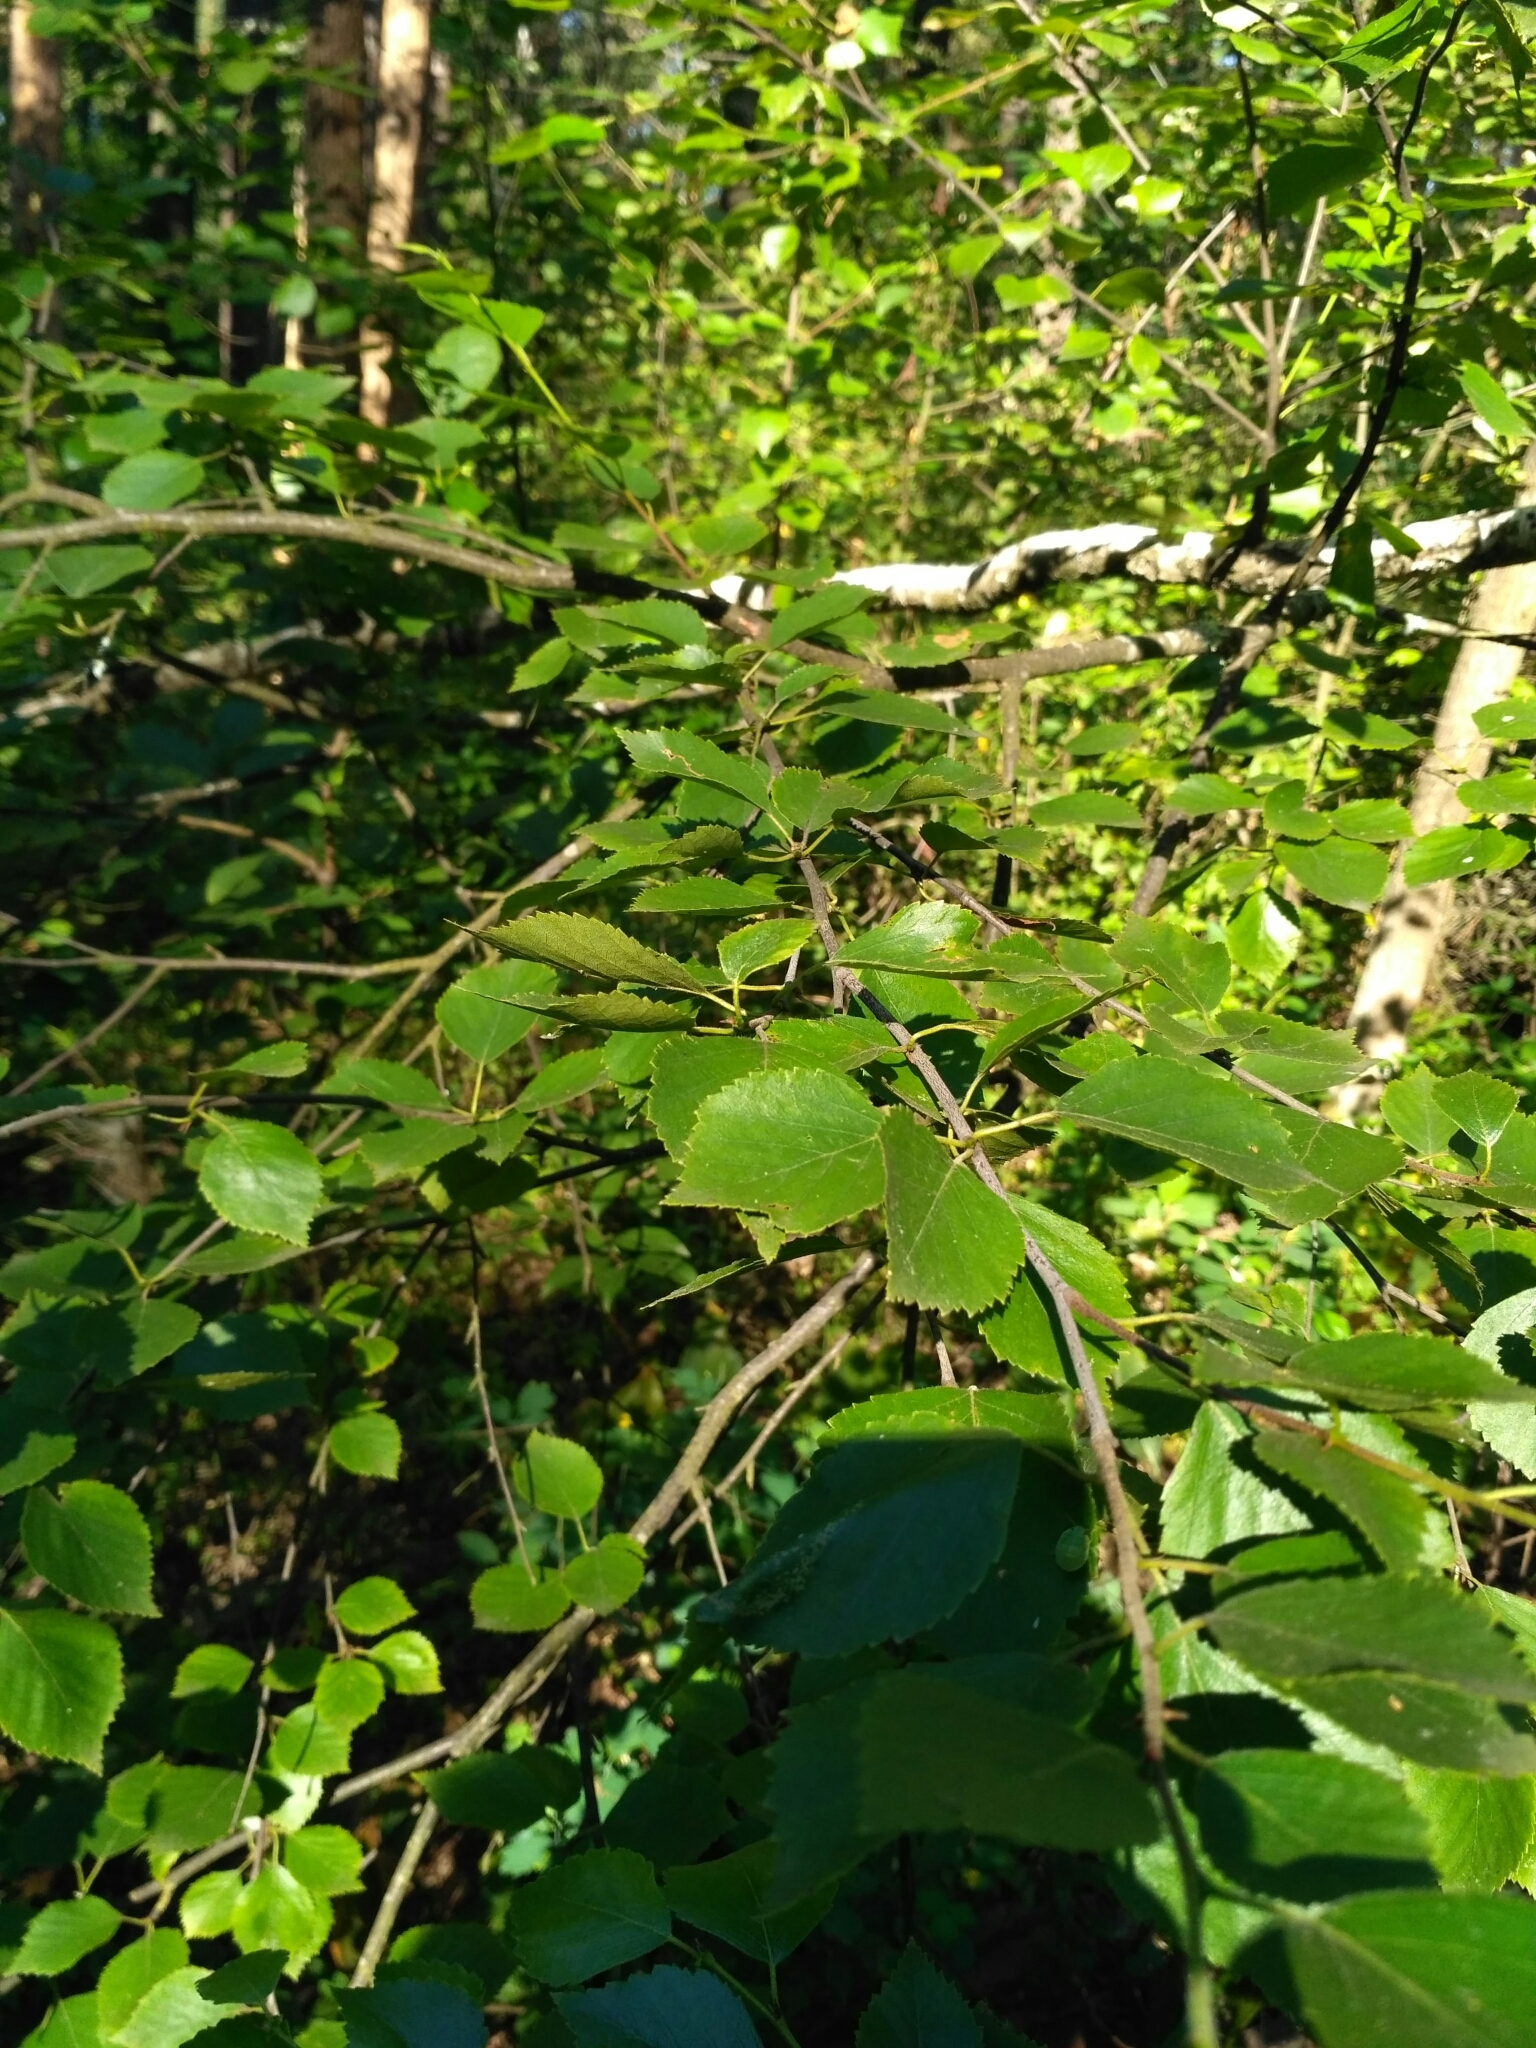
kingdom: Plantae
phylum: Tracheophyta
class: Magnoliopsida
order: Fagales
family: Betulaceae
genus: Betula
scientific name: Betula pubescens
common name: Downy birch
